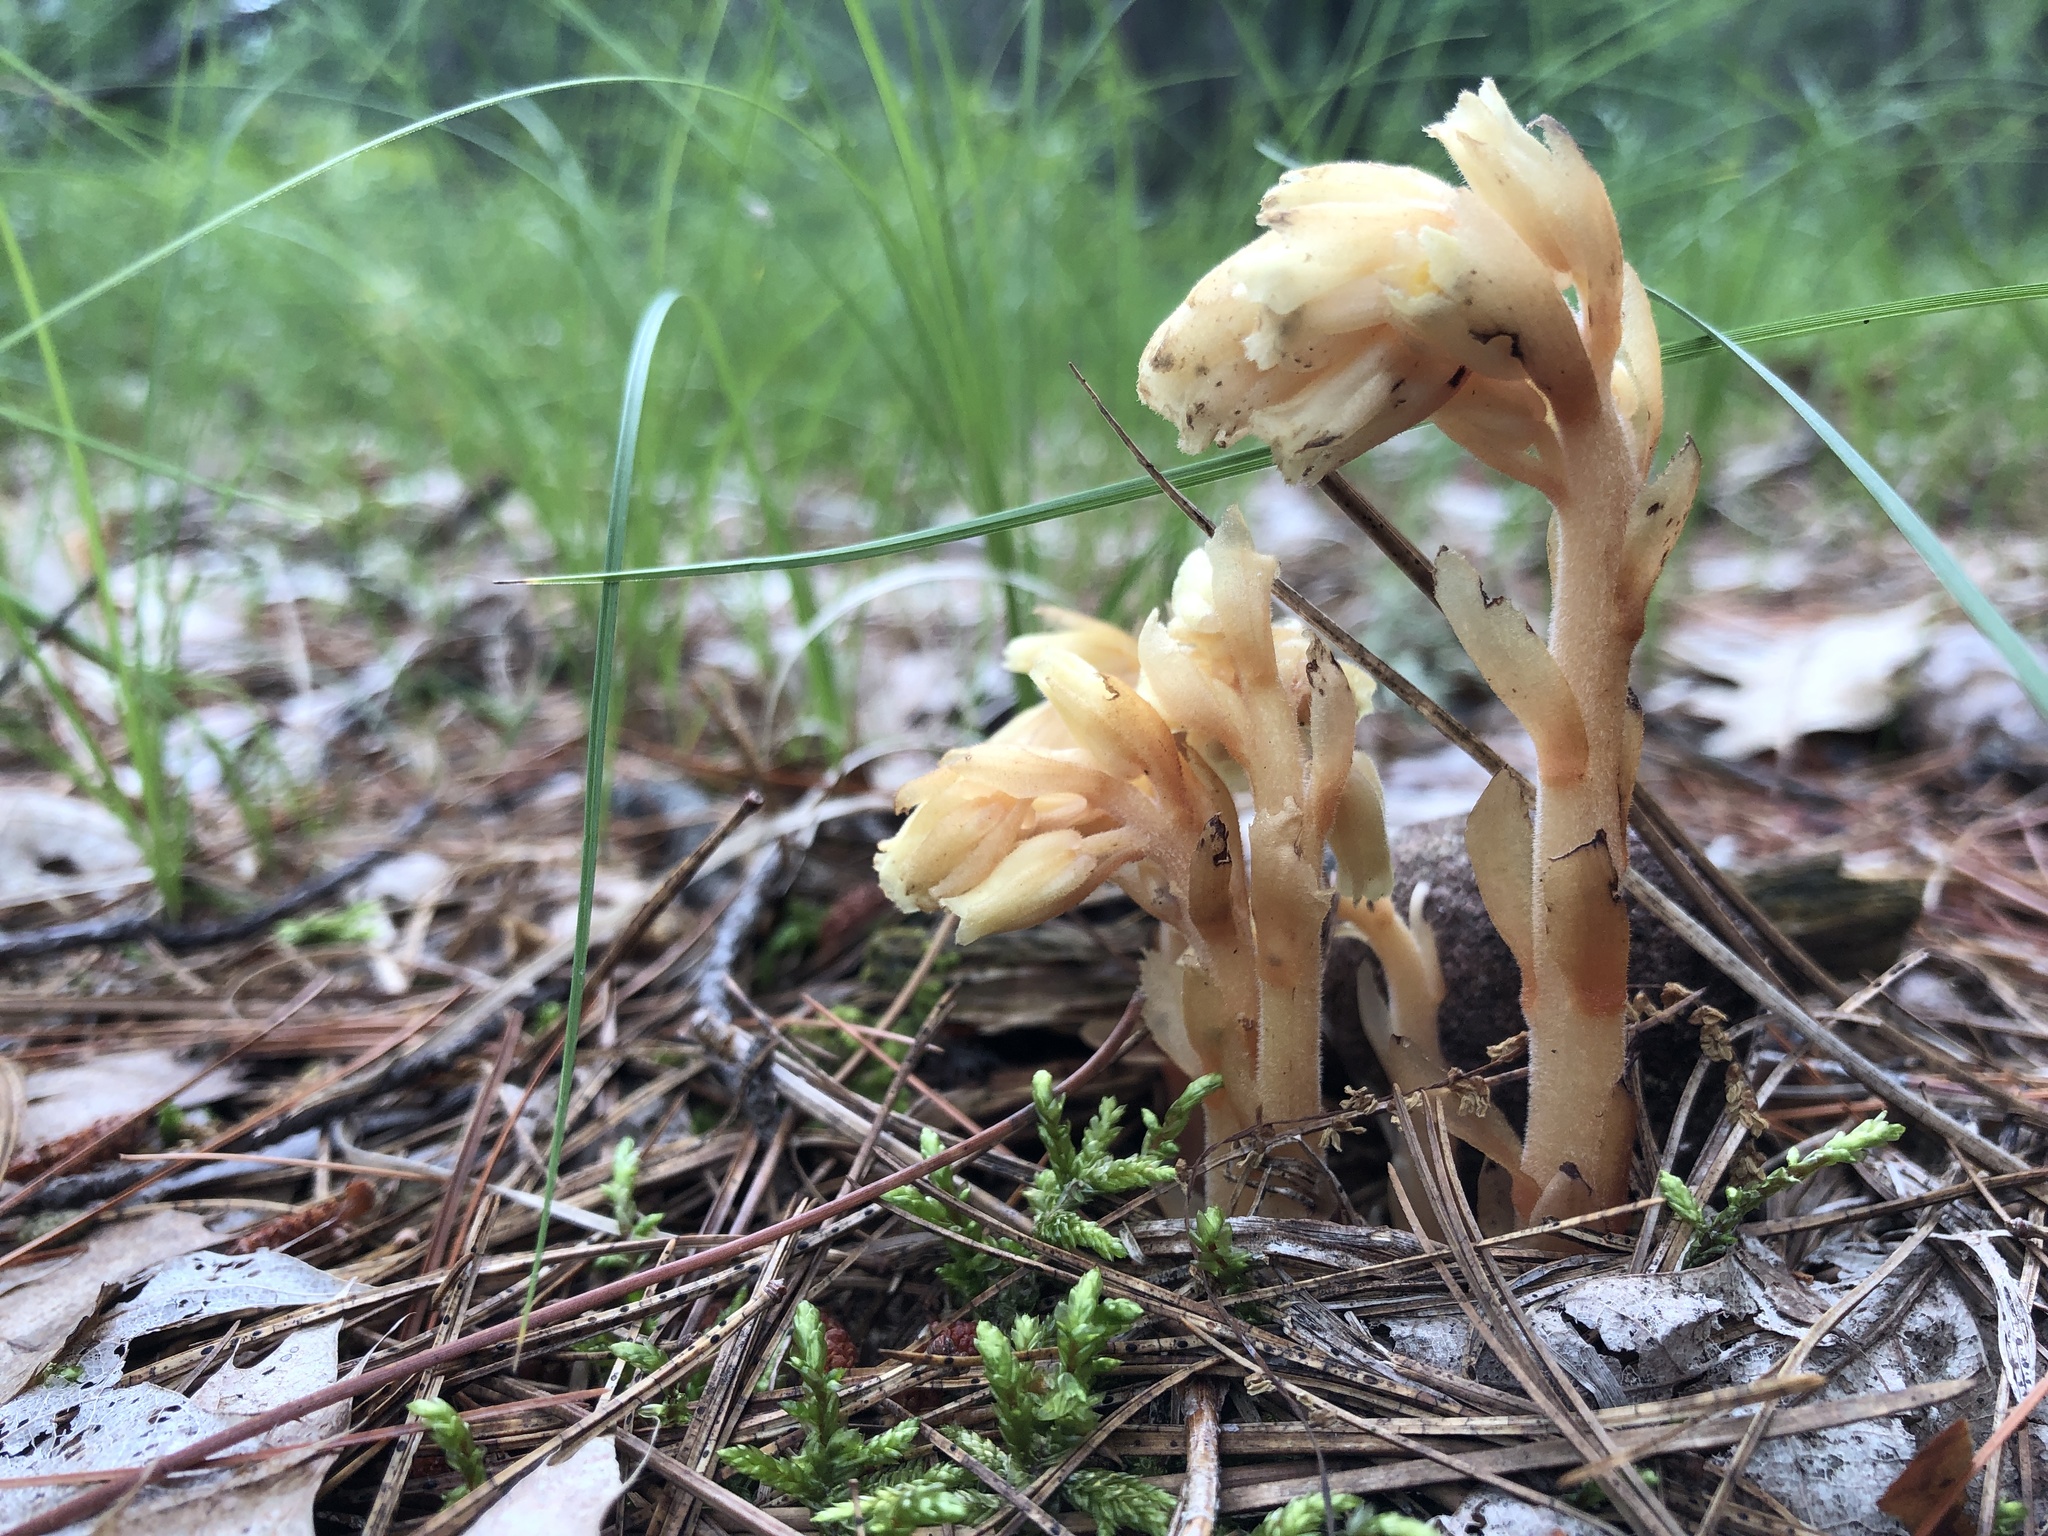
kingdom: Plantae
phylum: Tracheophyta
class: Magnoliopsida
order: Ericales
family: Ericaceae
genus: Hypopitys
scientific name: Hypopitys monotropa
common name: Yellow bird's-nest
